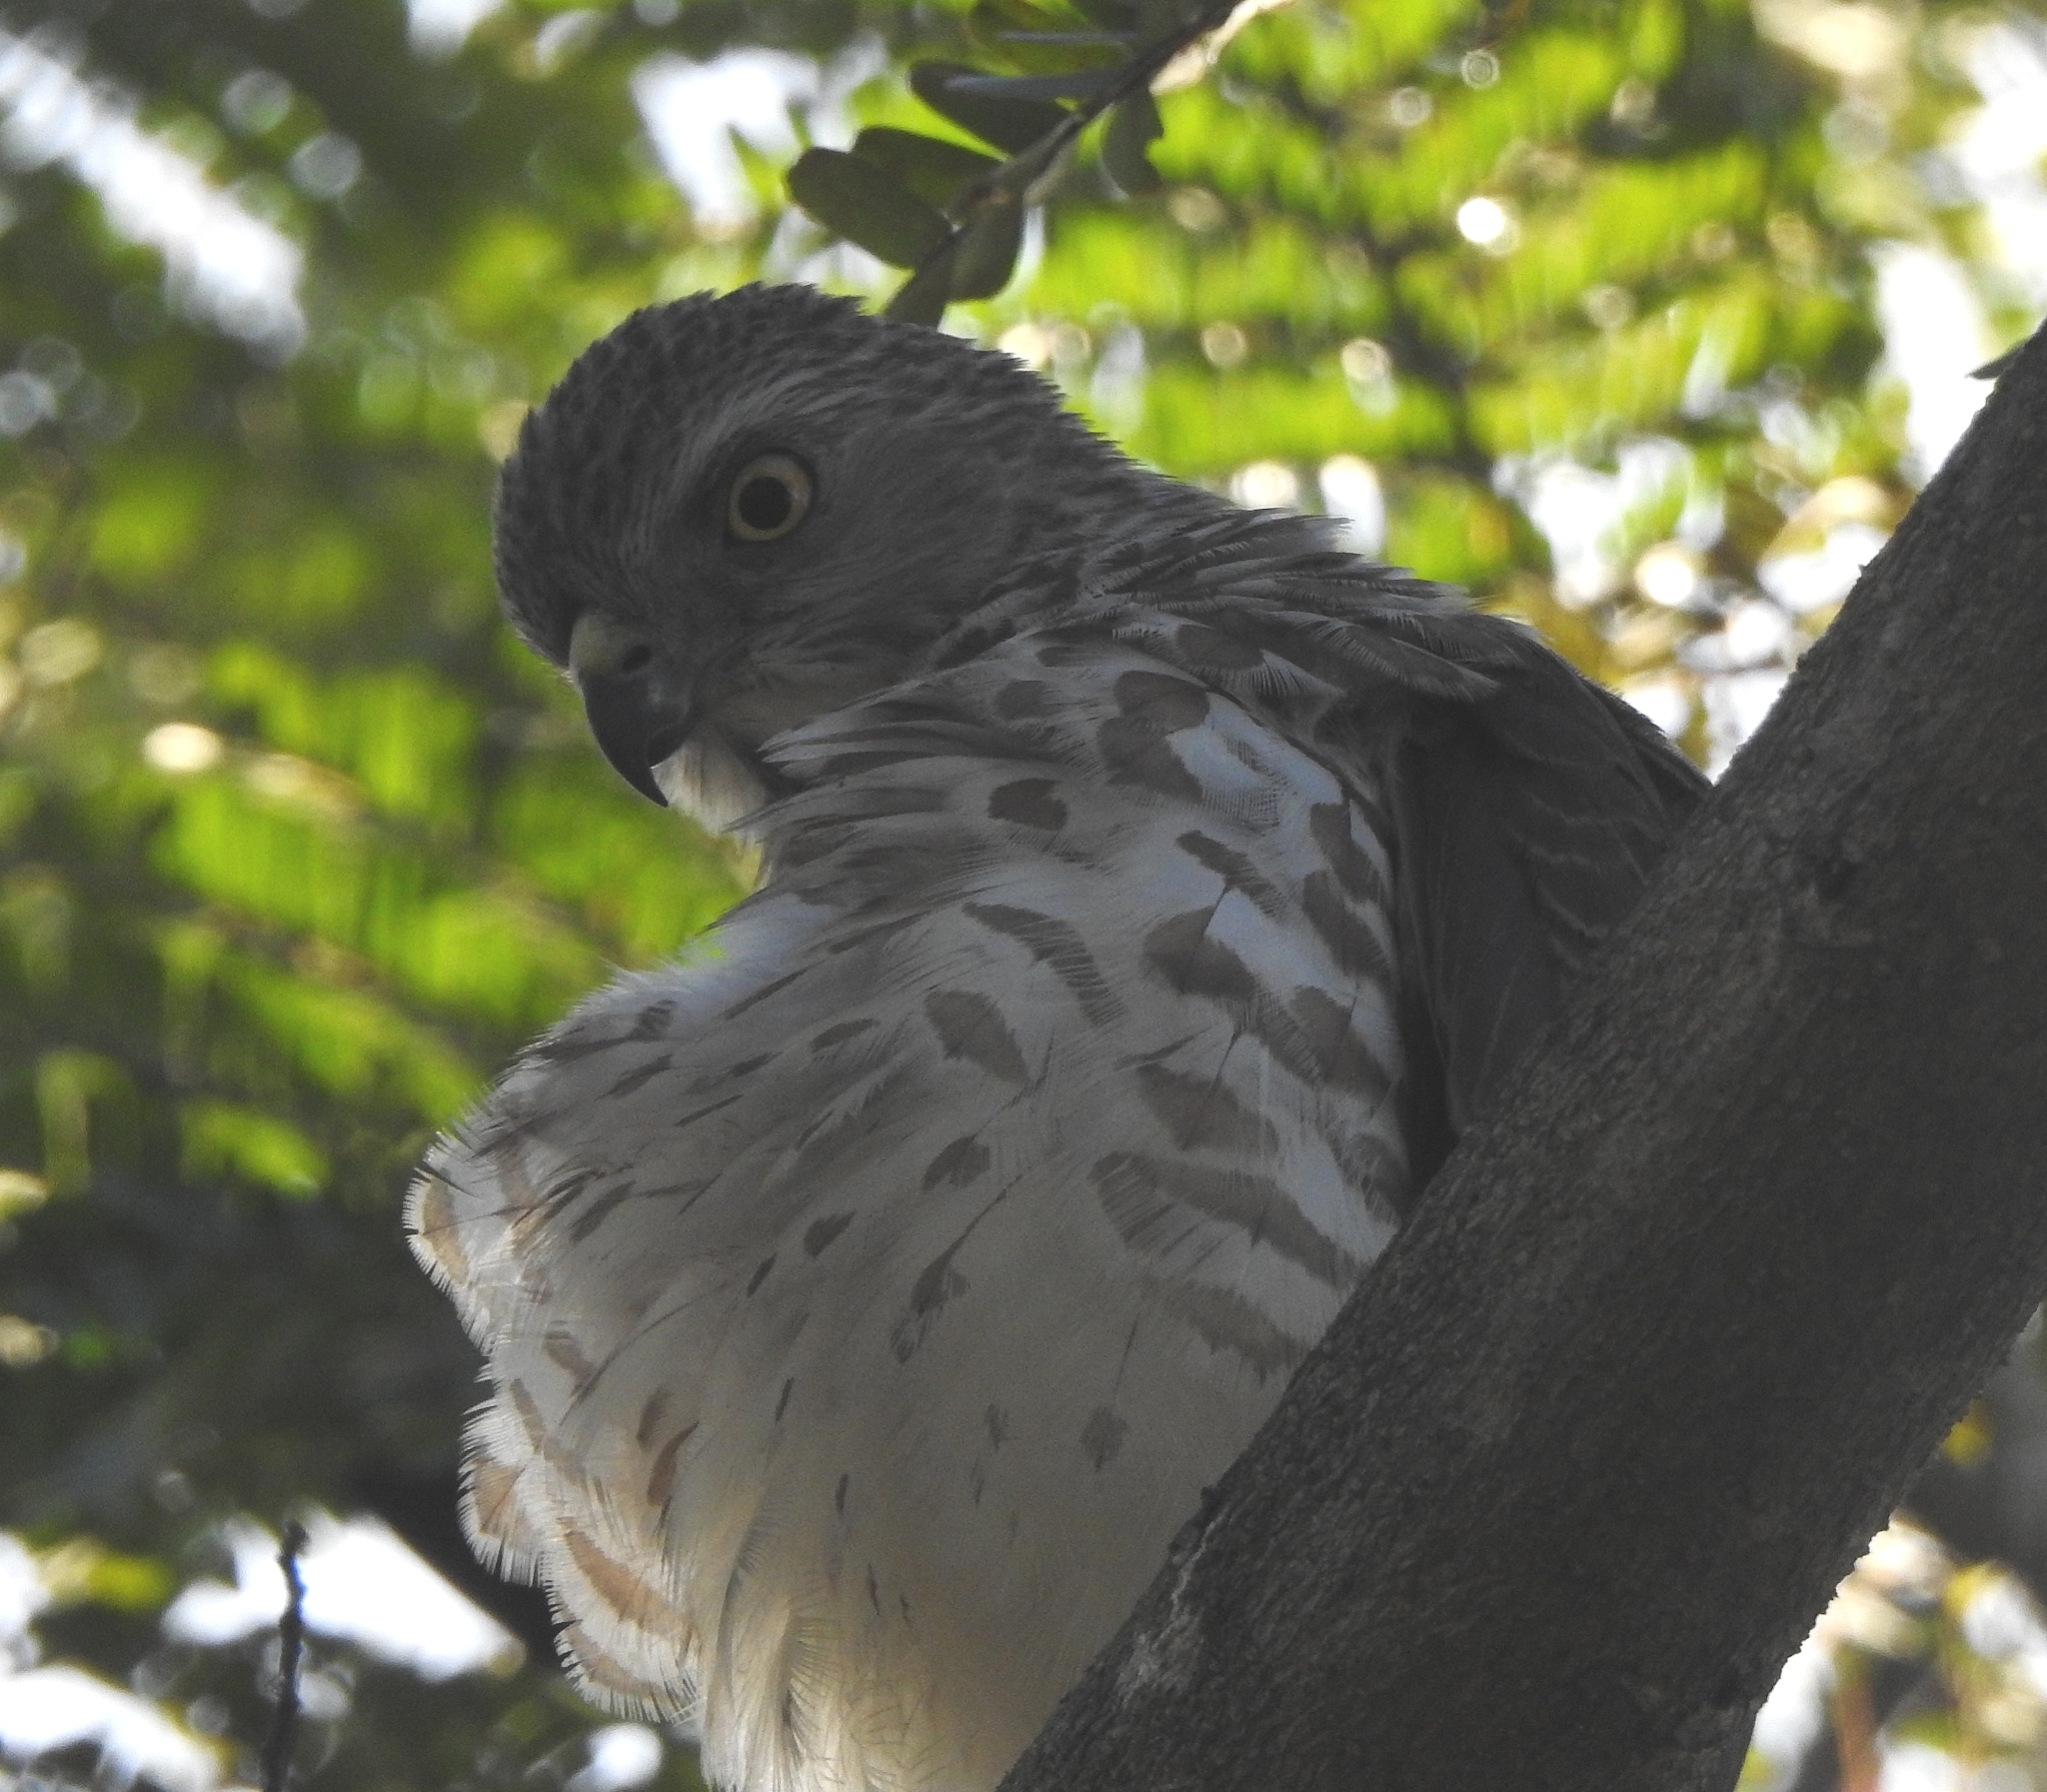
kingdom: Animalia
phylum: Chordata
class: Aves
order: Accipitriformes
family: Accipitridae
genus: Accipiter
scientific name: Accipiter badius
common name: Shikra
